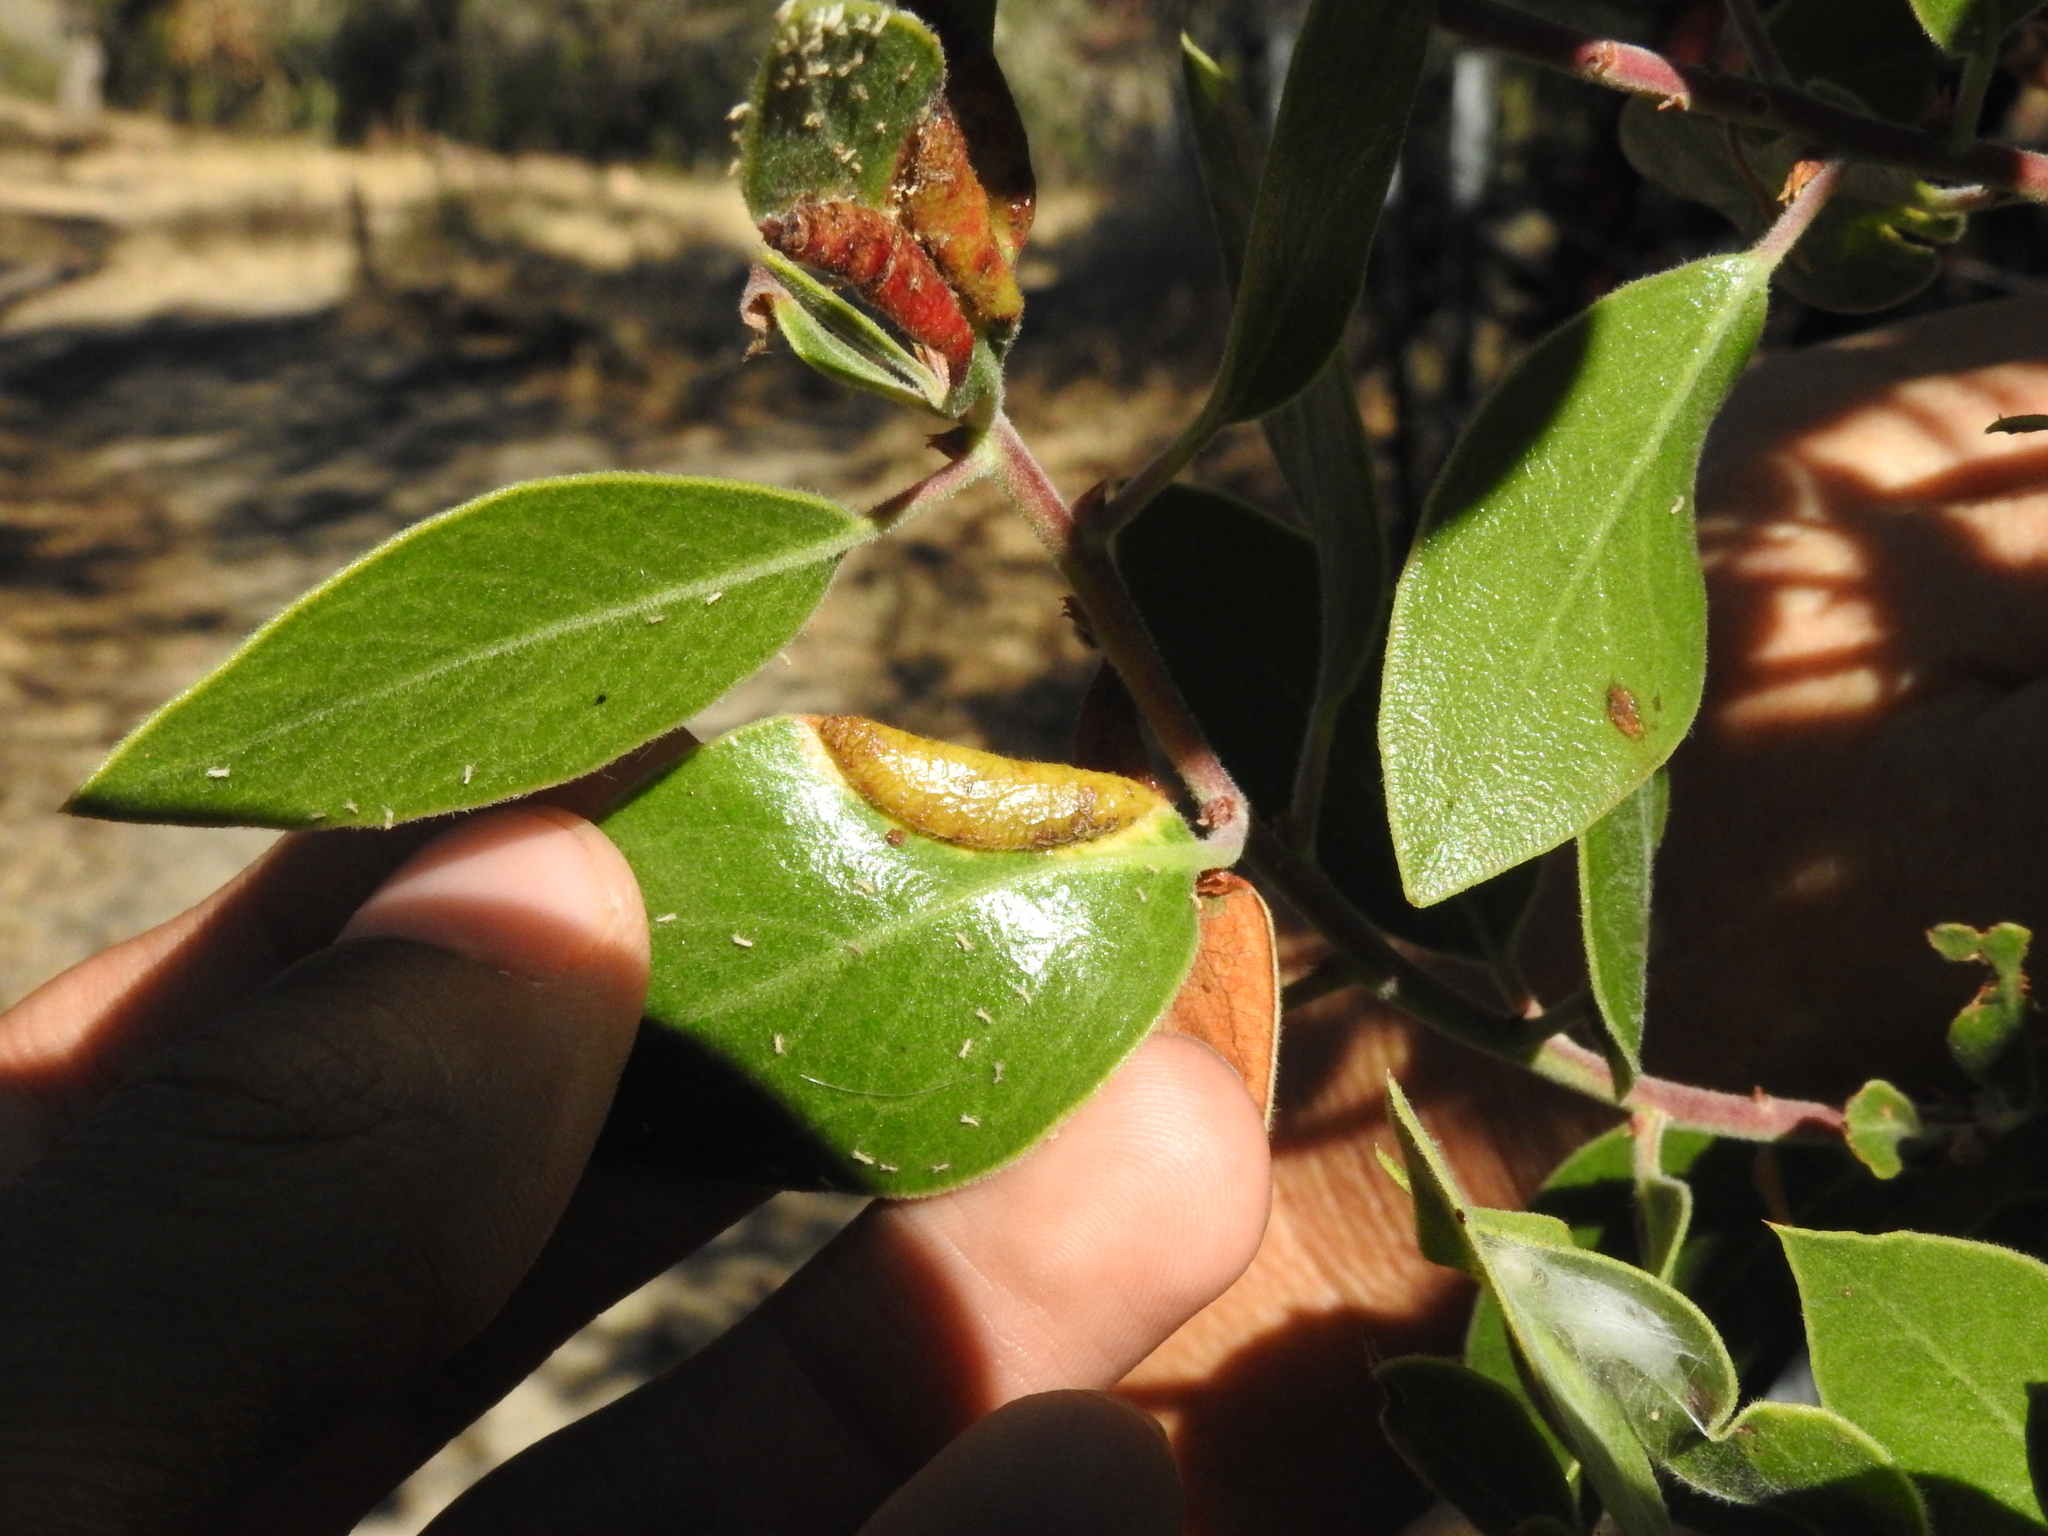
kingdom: Animalia
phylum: Arthropoda
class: Insecta
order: Hemiptera
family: Aphididae
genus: Tamalia
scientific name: Tamalia coweni
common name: Manzanita leafgall aphid
